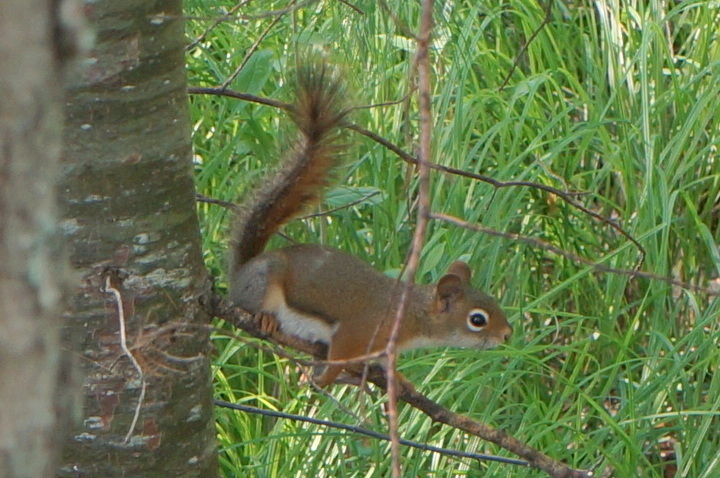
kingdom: Animalia
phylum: Chordata
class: Mammalia
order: Rodentia
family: Sciuridae
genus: Tamiasciurus
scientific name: Tamiasciurus hudsonicus
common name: Red squirrel
